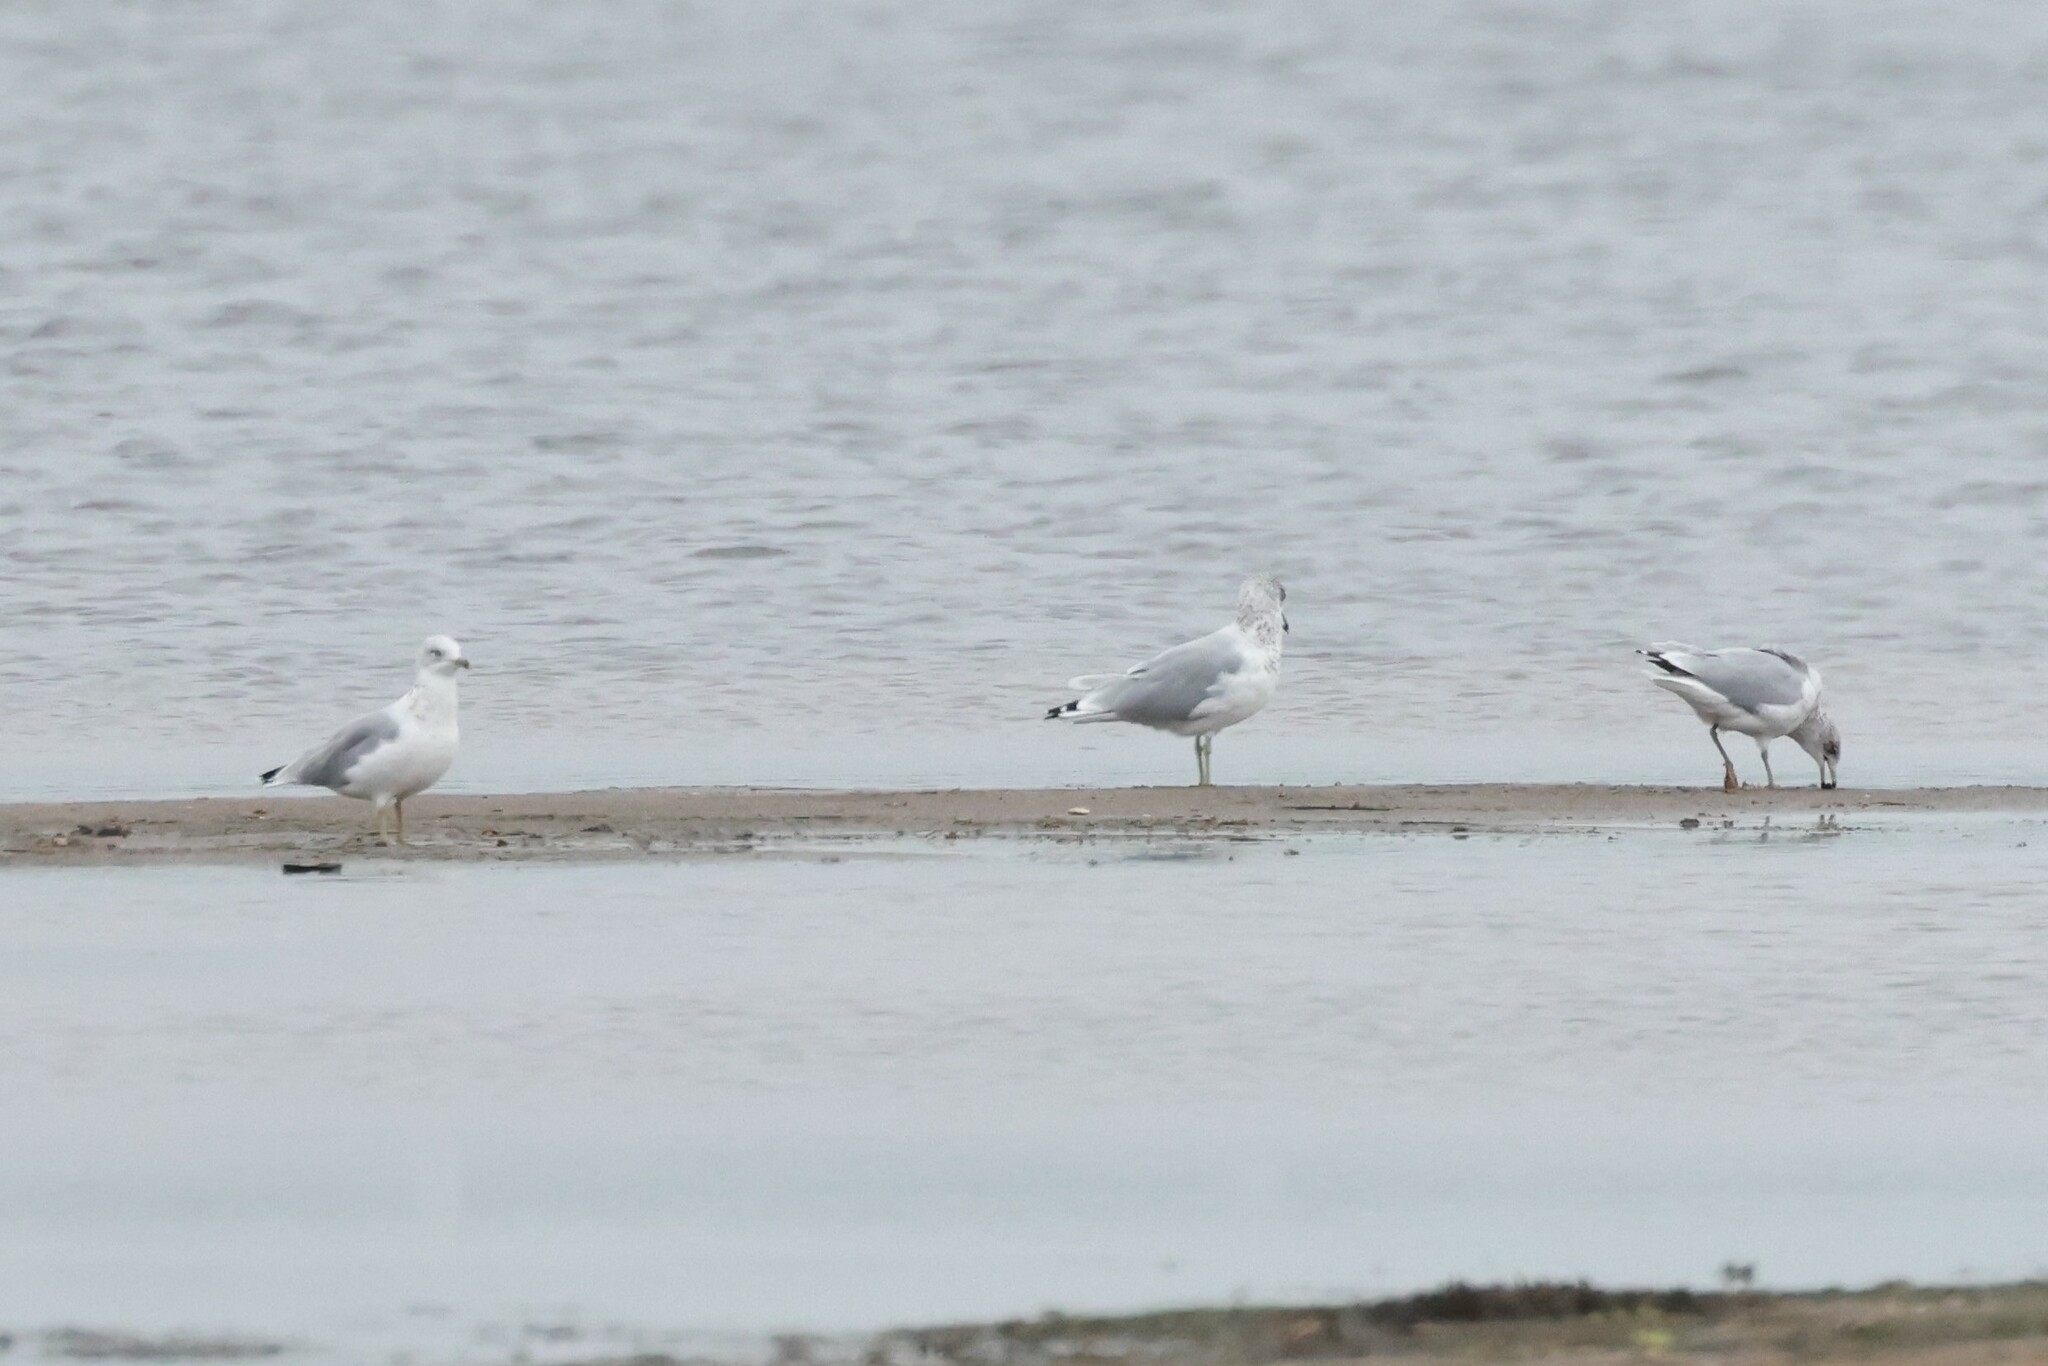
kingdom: Animalia
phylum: Chordata
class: Aves
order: Charadriiformes
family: Laridae
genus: Larus
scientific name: Larus delawarensis
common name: Ring-billed gull
